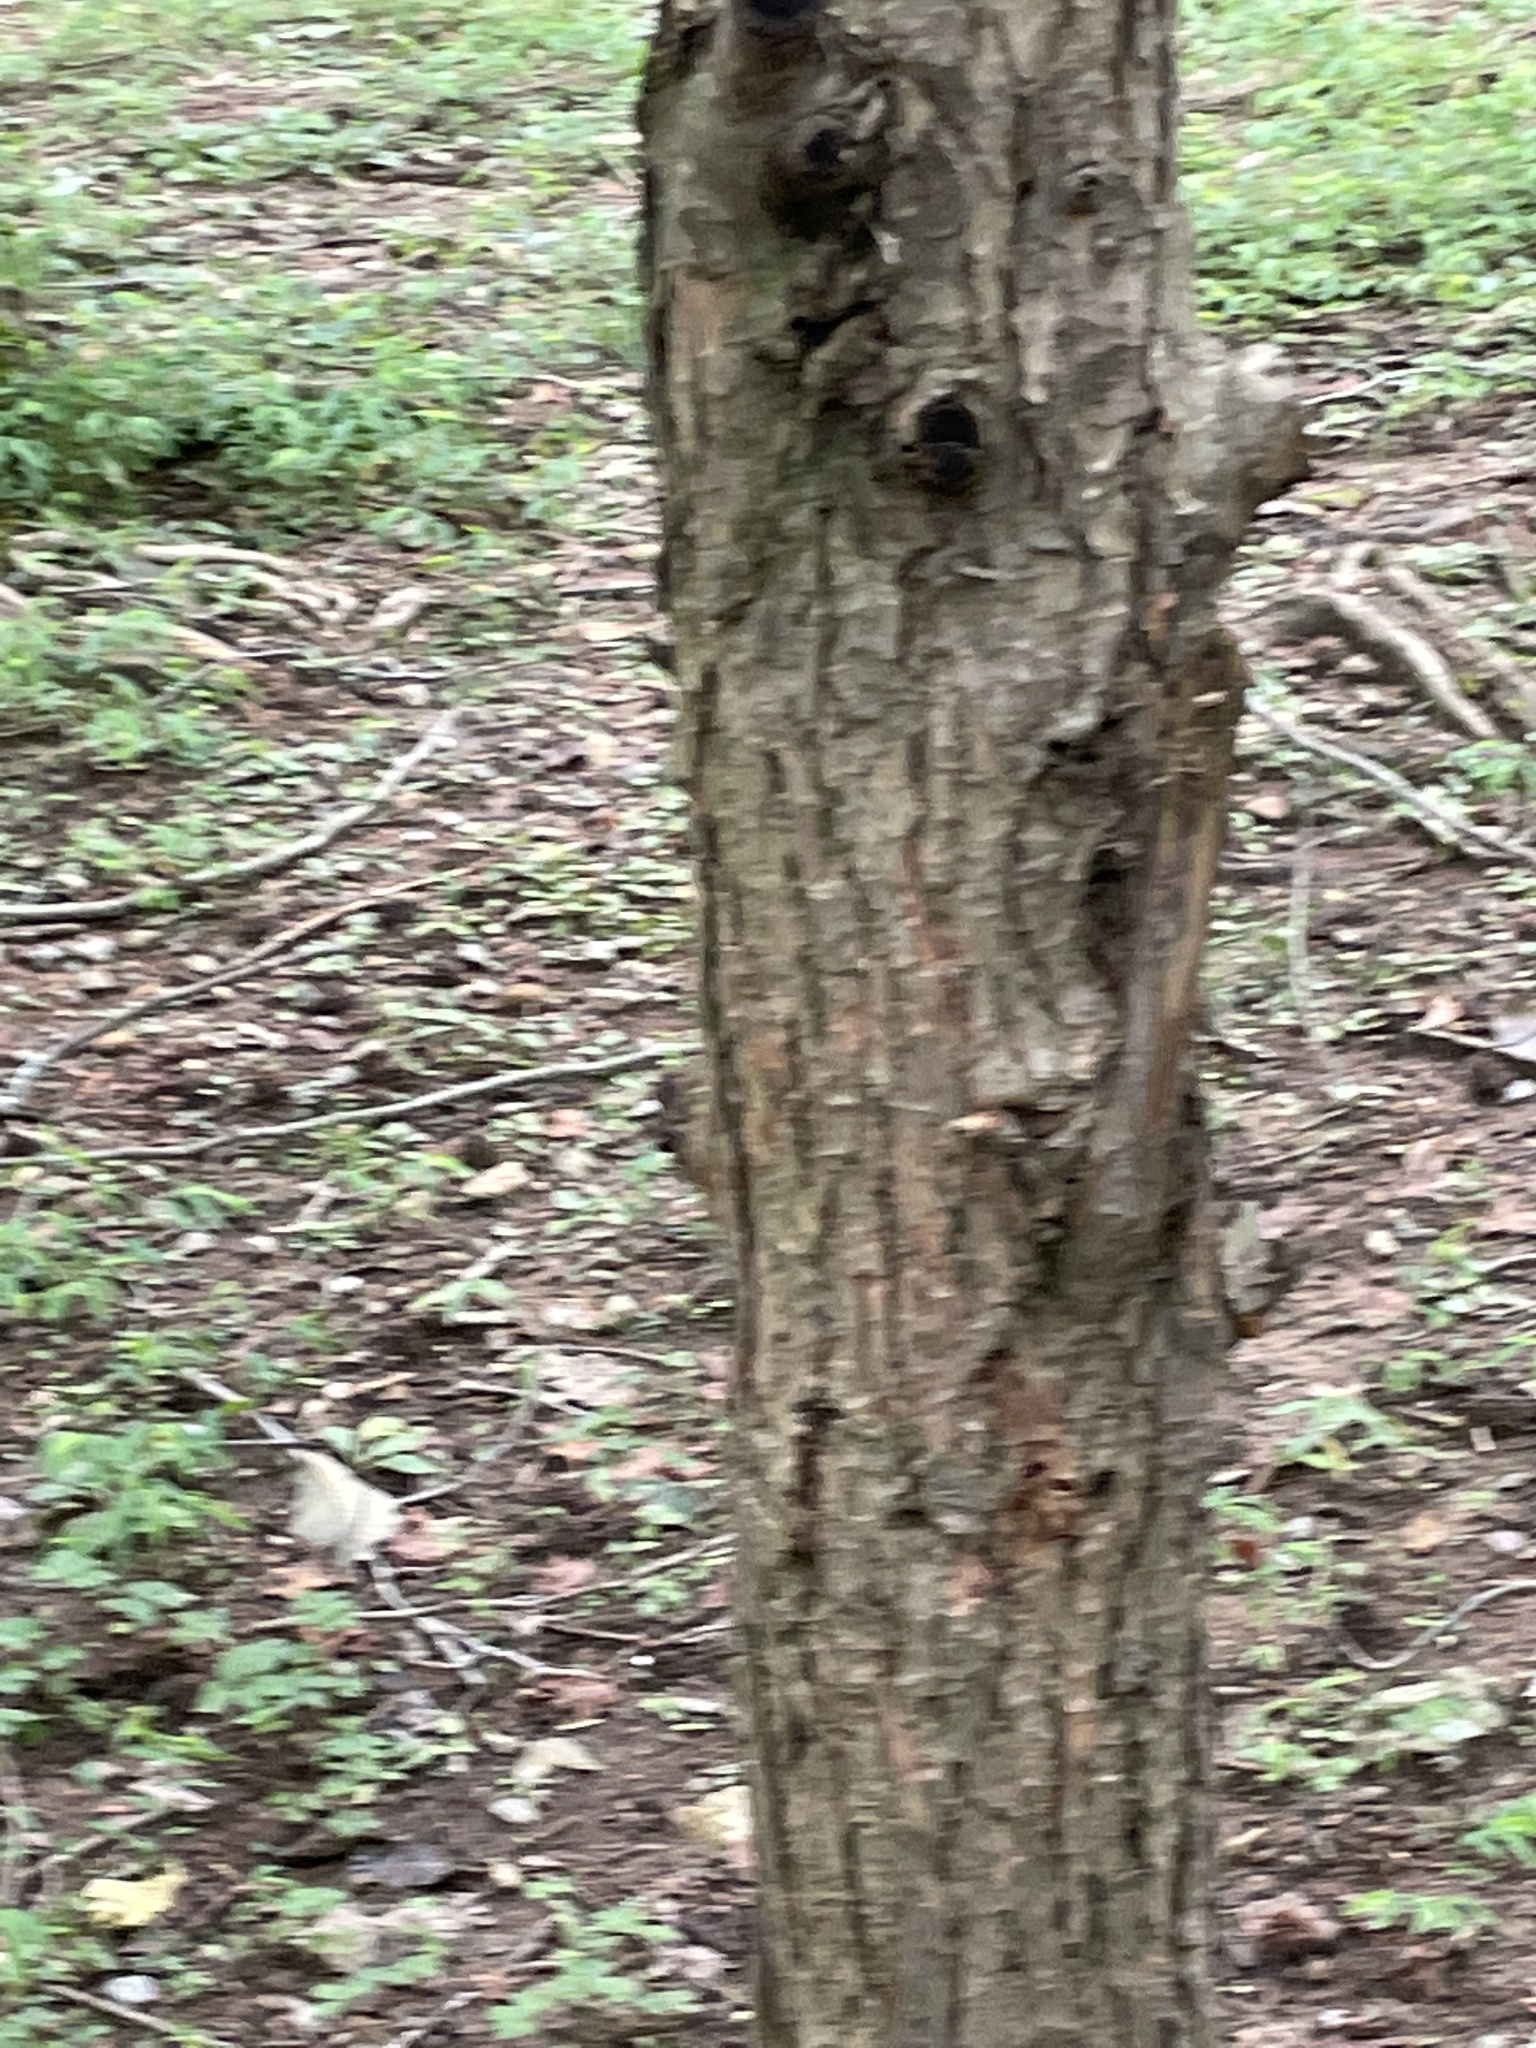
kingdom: Plantae
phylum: Tracheophyta
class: Pinopsida
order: Pinales
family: Pinaceae
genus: Tsuga
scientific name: Tsuga canadensis
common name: Eastern hemlock
